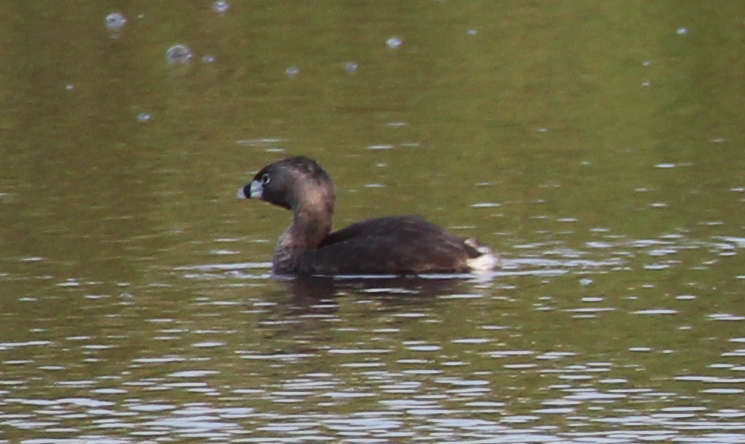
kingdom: Animalia
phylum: Chordata
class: Aves
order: Podicipediformes
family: Podicipedidae
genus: Podilymbus
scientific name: Podilymbus podiceps
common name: Pied-billed grebe
